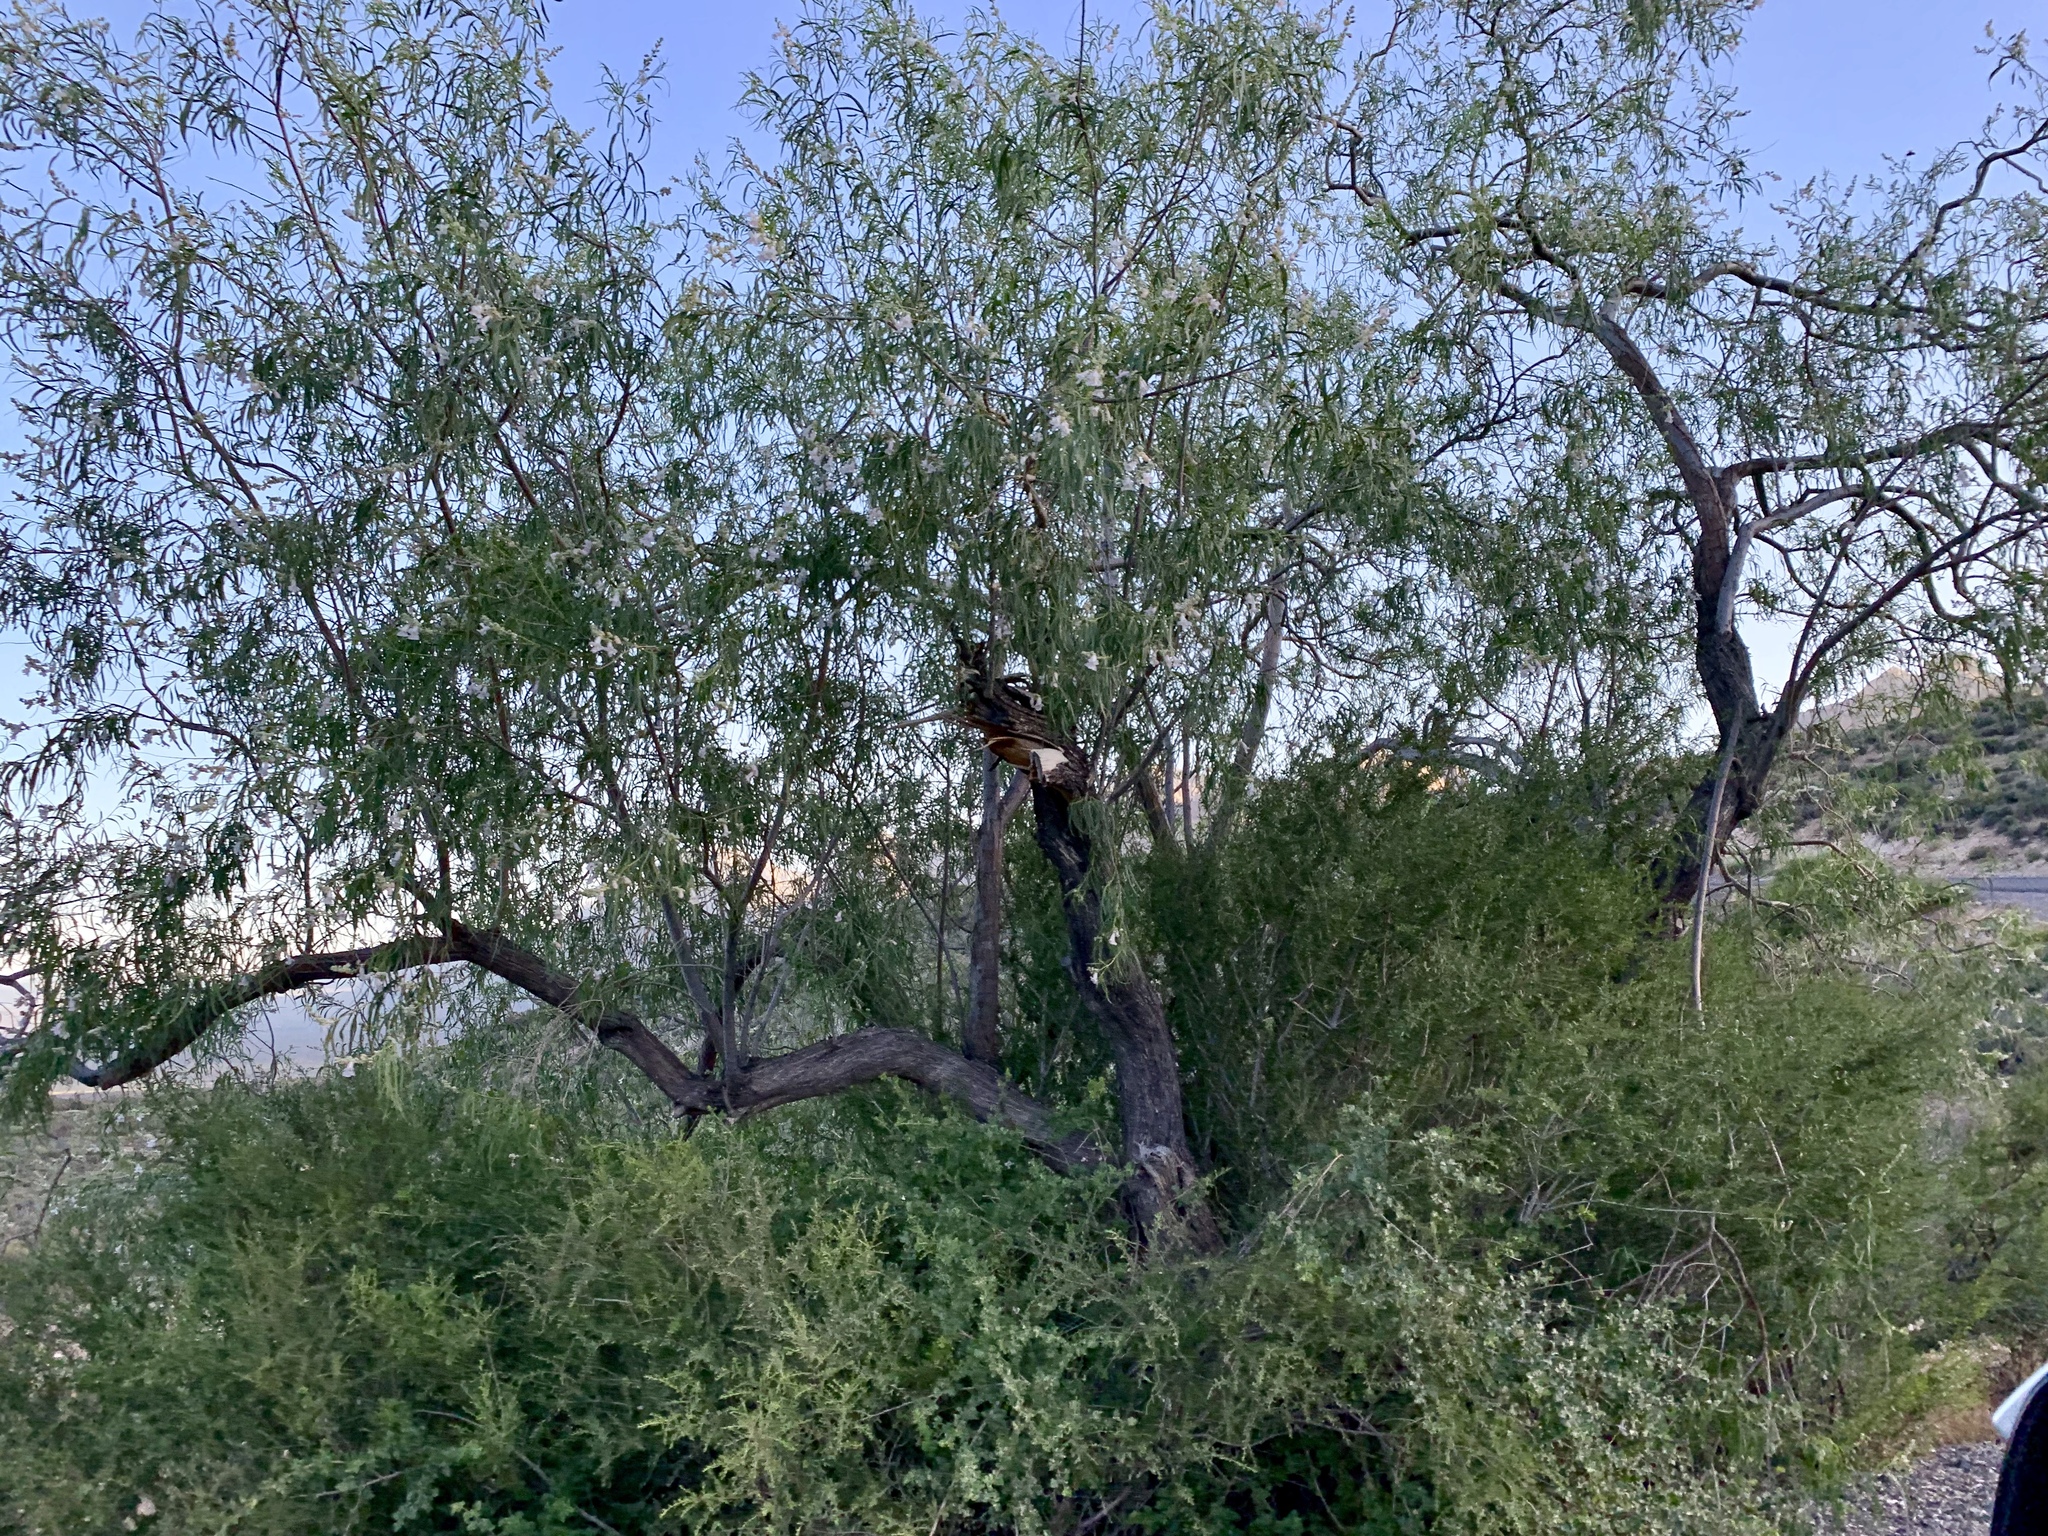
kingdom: Plantae
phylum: Tracheophyta
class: Magnoliopsida
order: Lamiales
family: Bignoniaceae
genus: Chilopsis
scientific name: Chilopsis linearis
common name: Desert-willow
